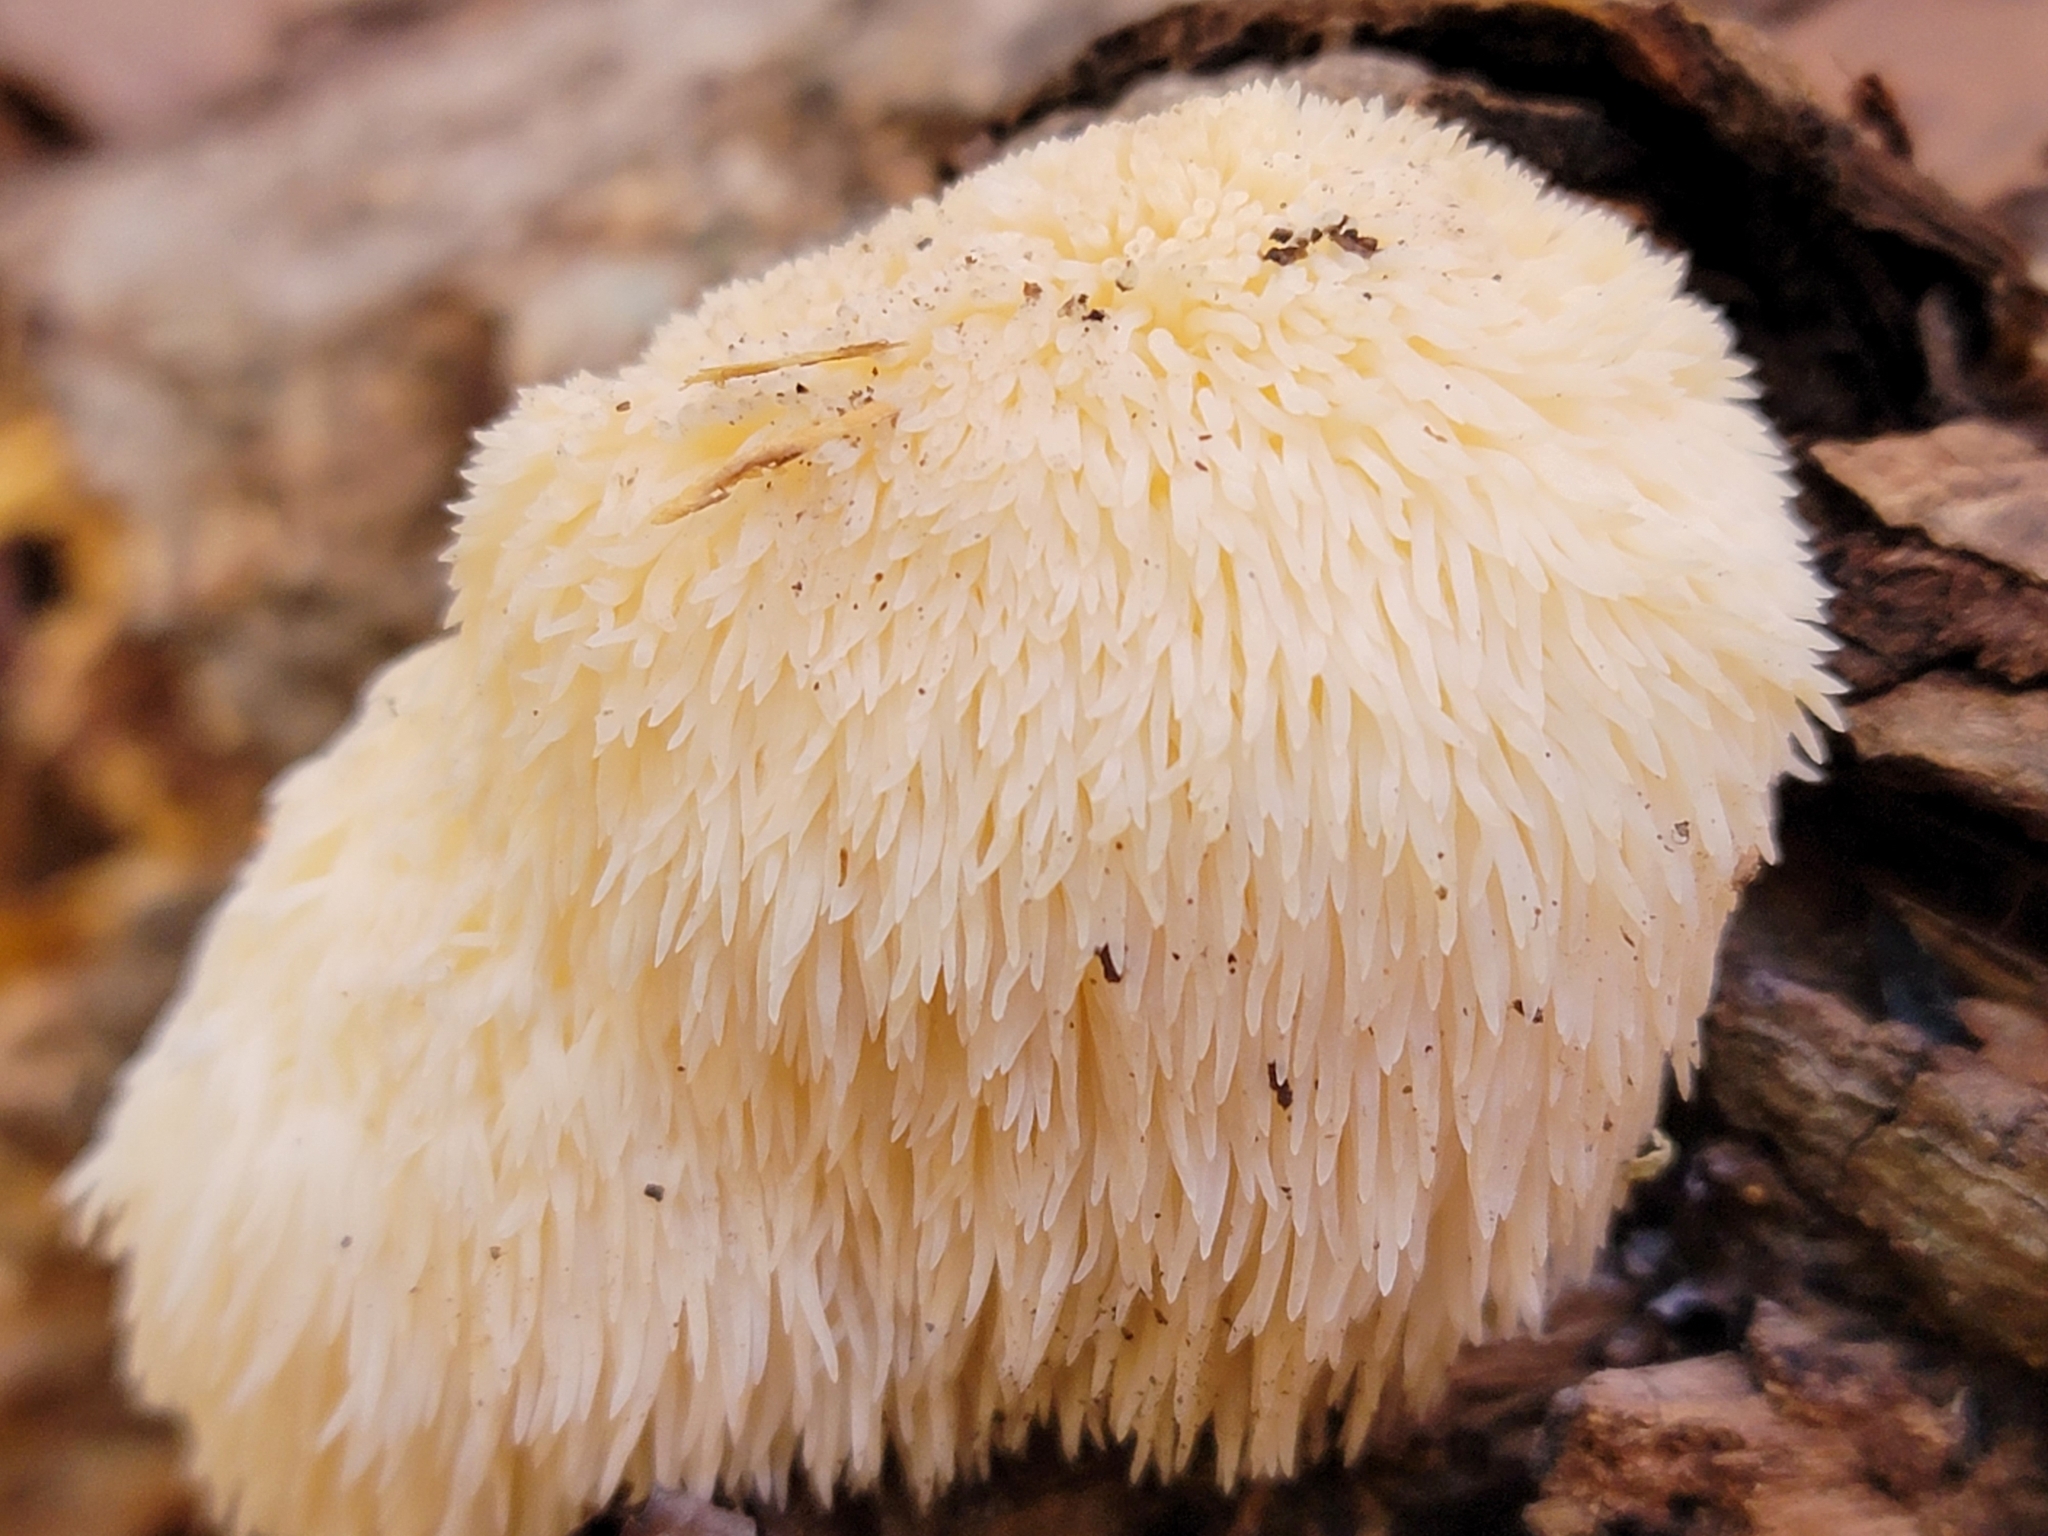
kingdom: Fungi
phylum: Basidiomycota
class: Agaricomycetes
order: Russulales
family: Hericiaceae
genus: Hericium
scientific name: Hericium erinaceus
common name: Bearded tooth
